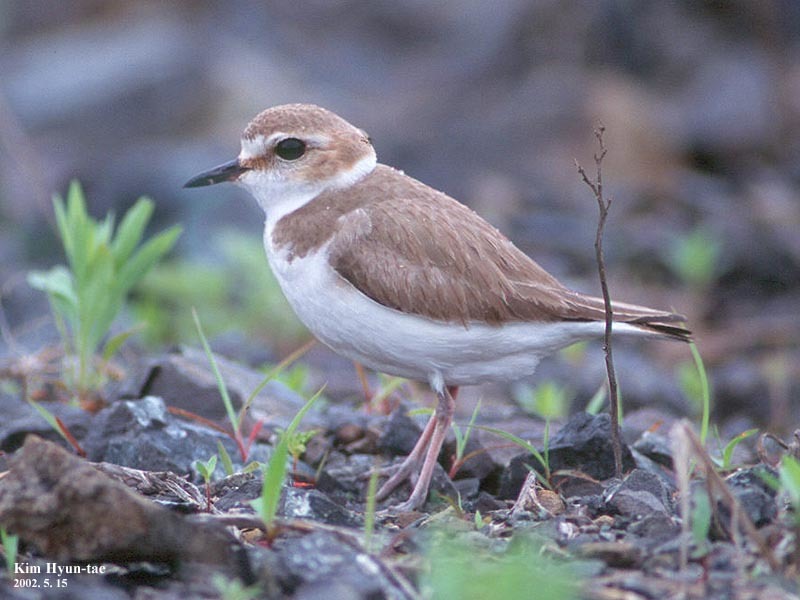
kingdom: Animalia
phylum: Chordata
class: Aves
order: Charadriiformes
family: Charadriidae
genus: Charadrius
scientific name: Charadrius alexandrinus
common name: Kentish plover
